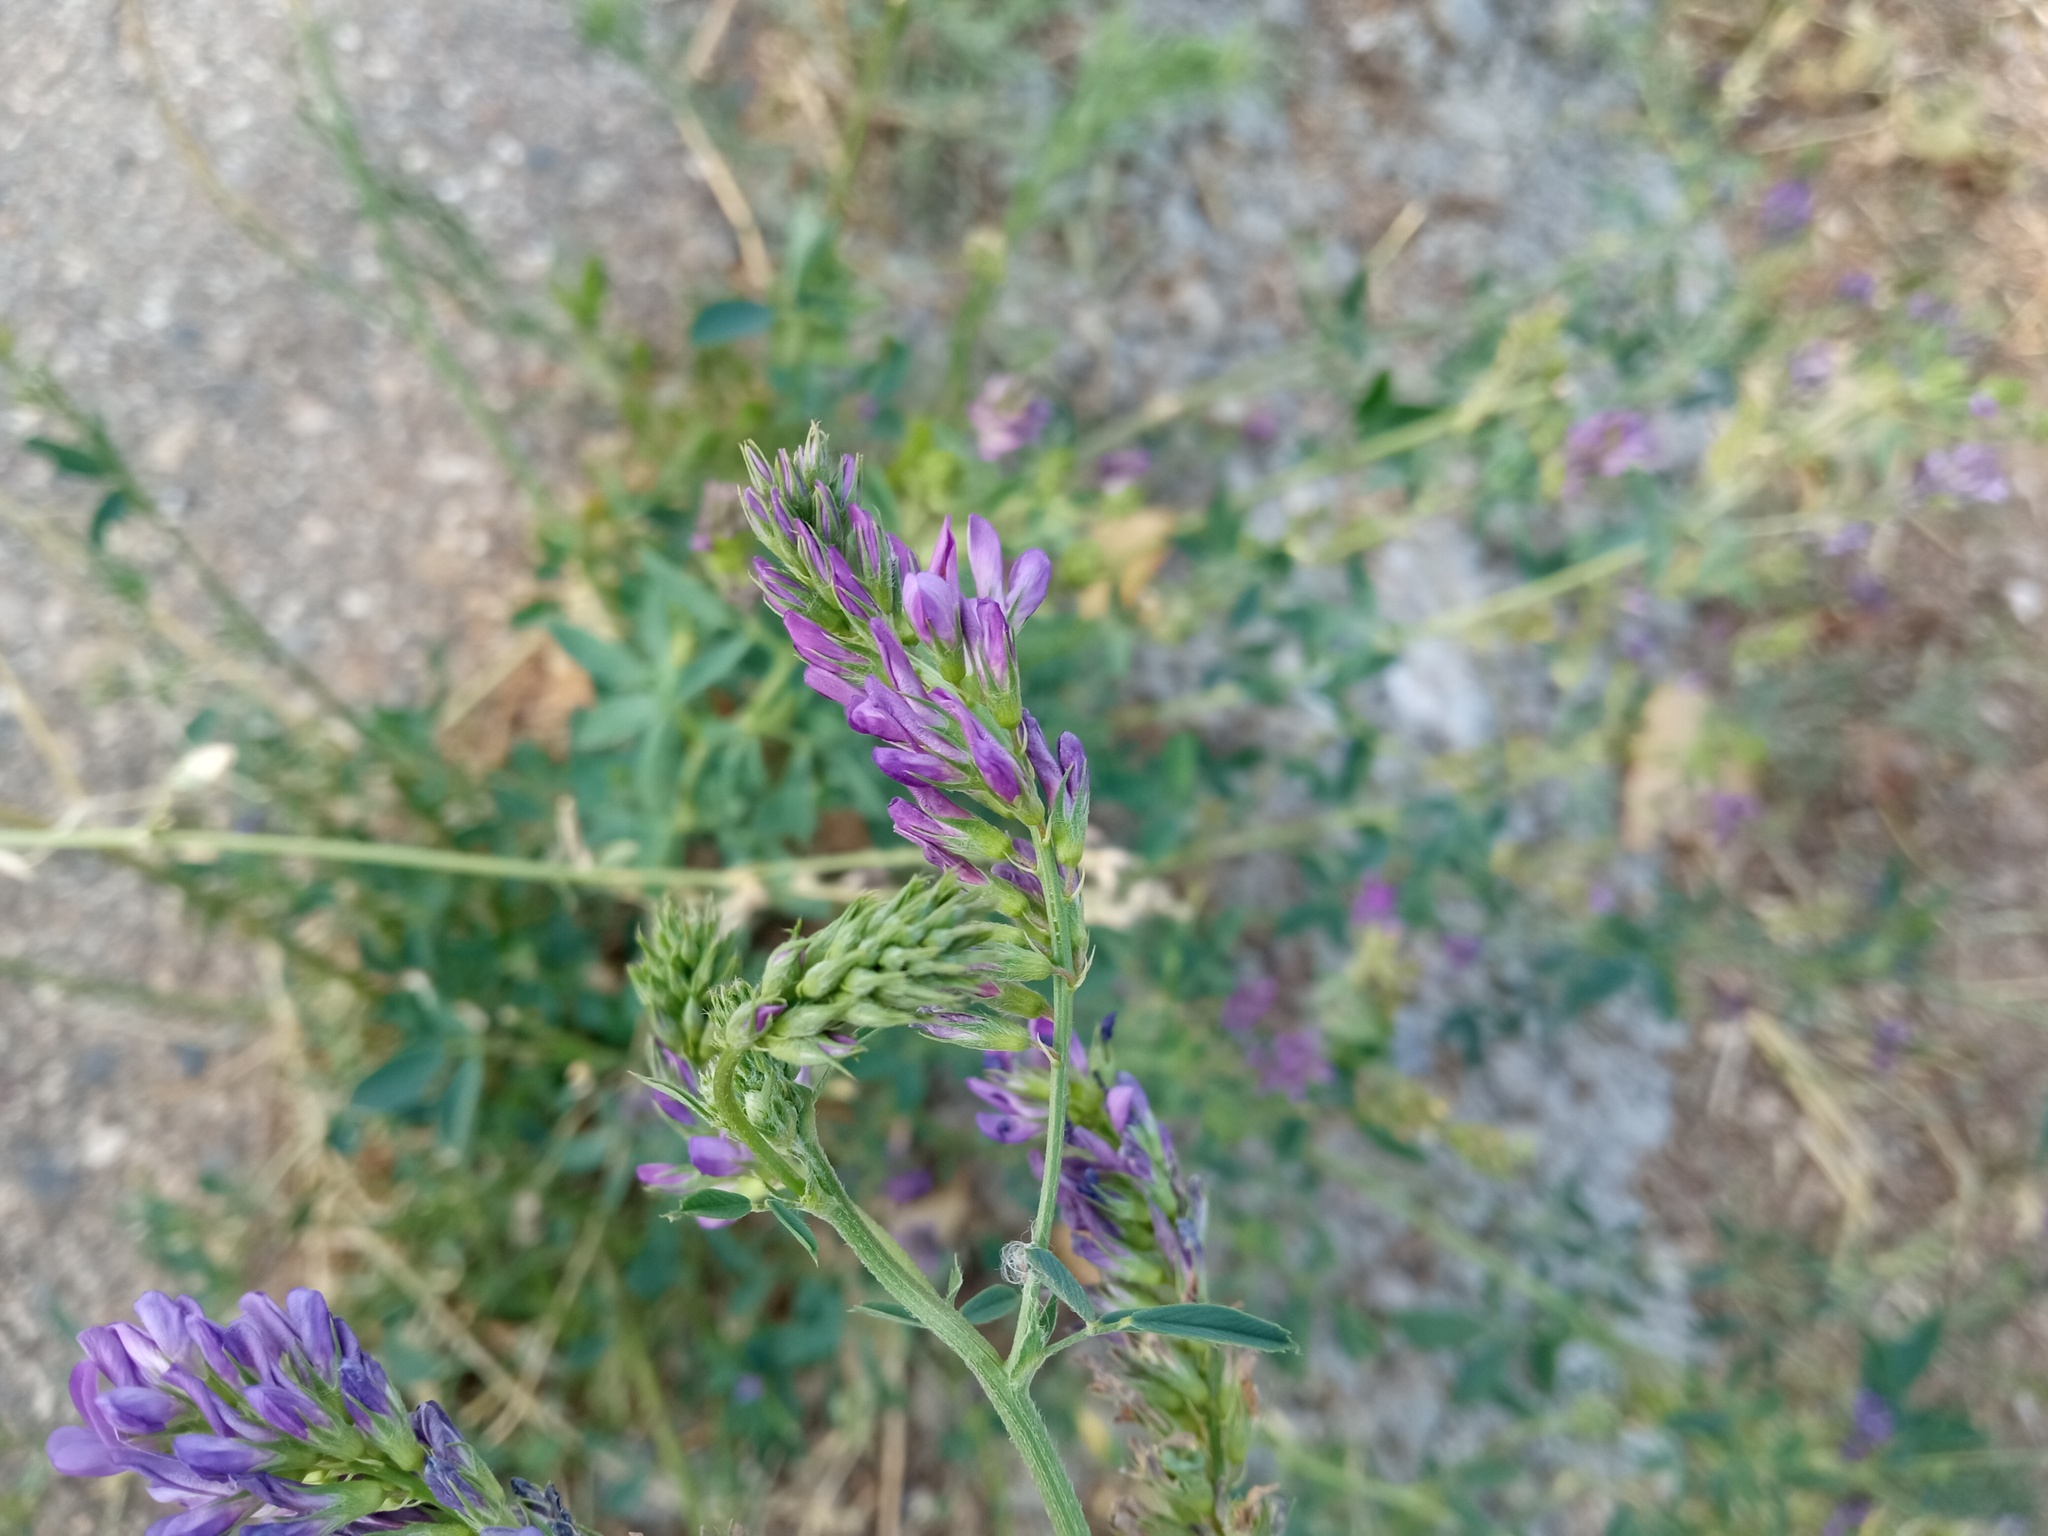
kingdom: Plantae
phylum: Tracheophyta
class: Magnoliopsida
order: Fabales
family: Fabaceae
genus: Medicago
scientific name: Medicago sativa
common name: Alfalfa
